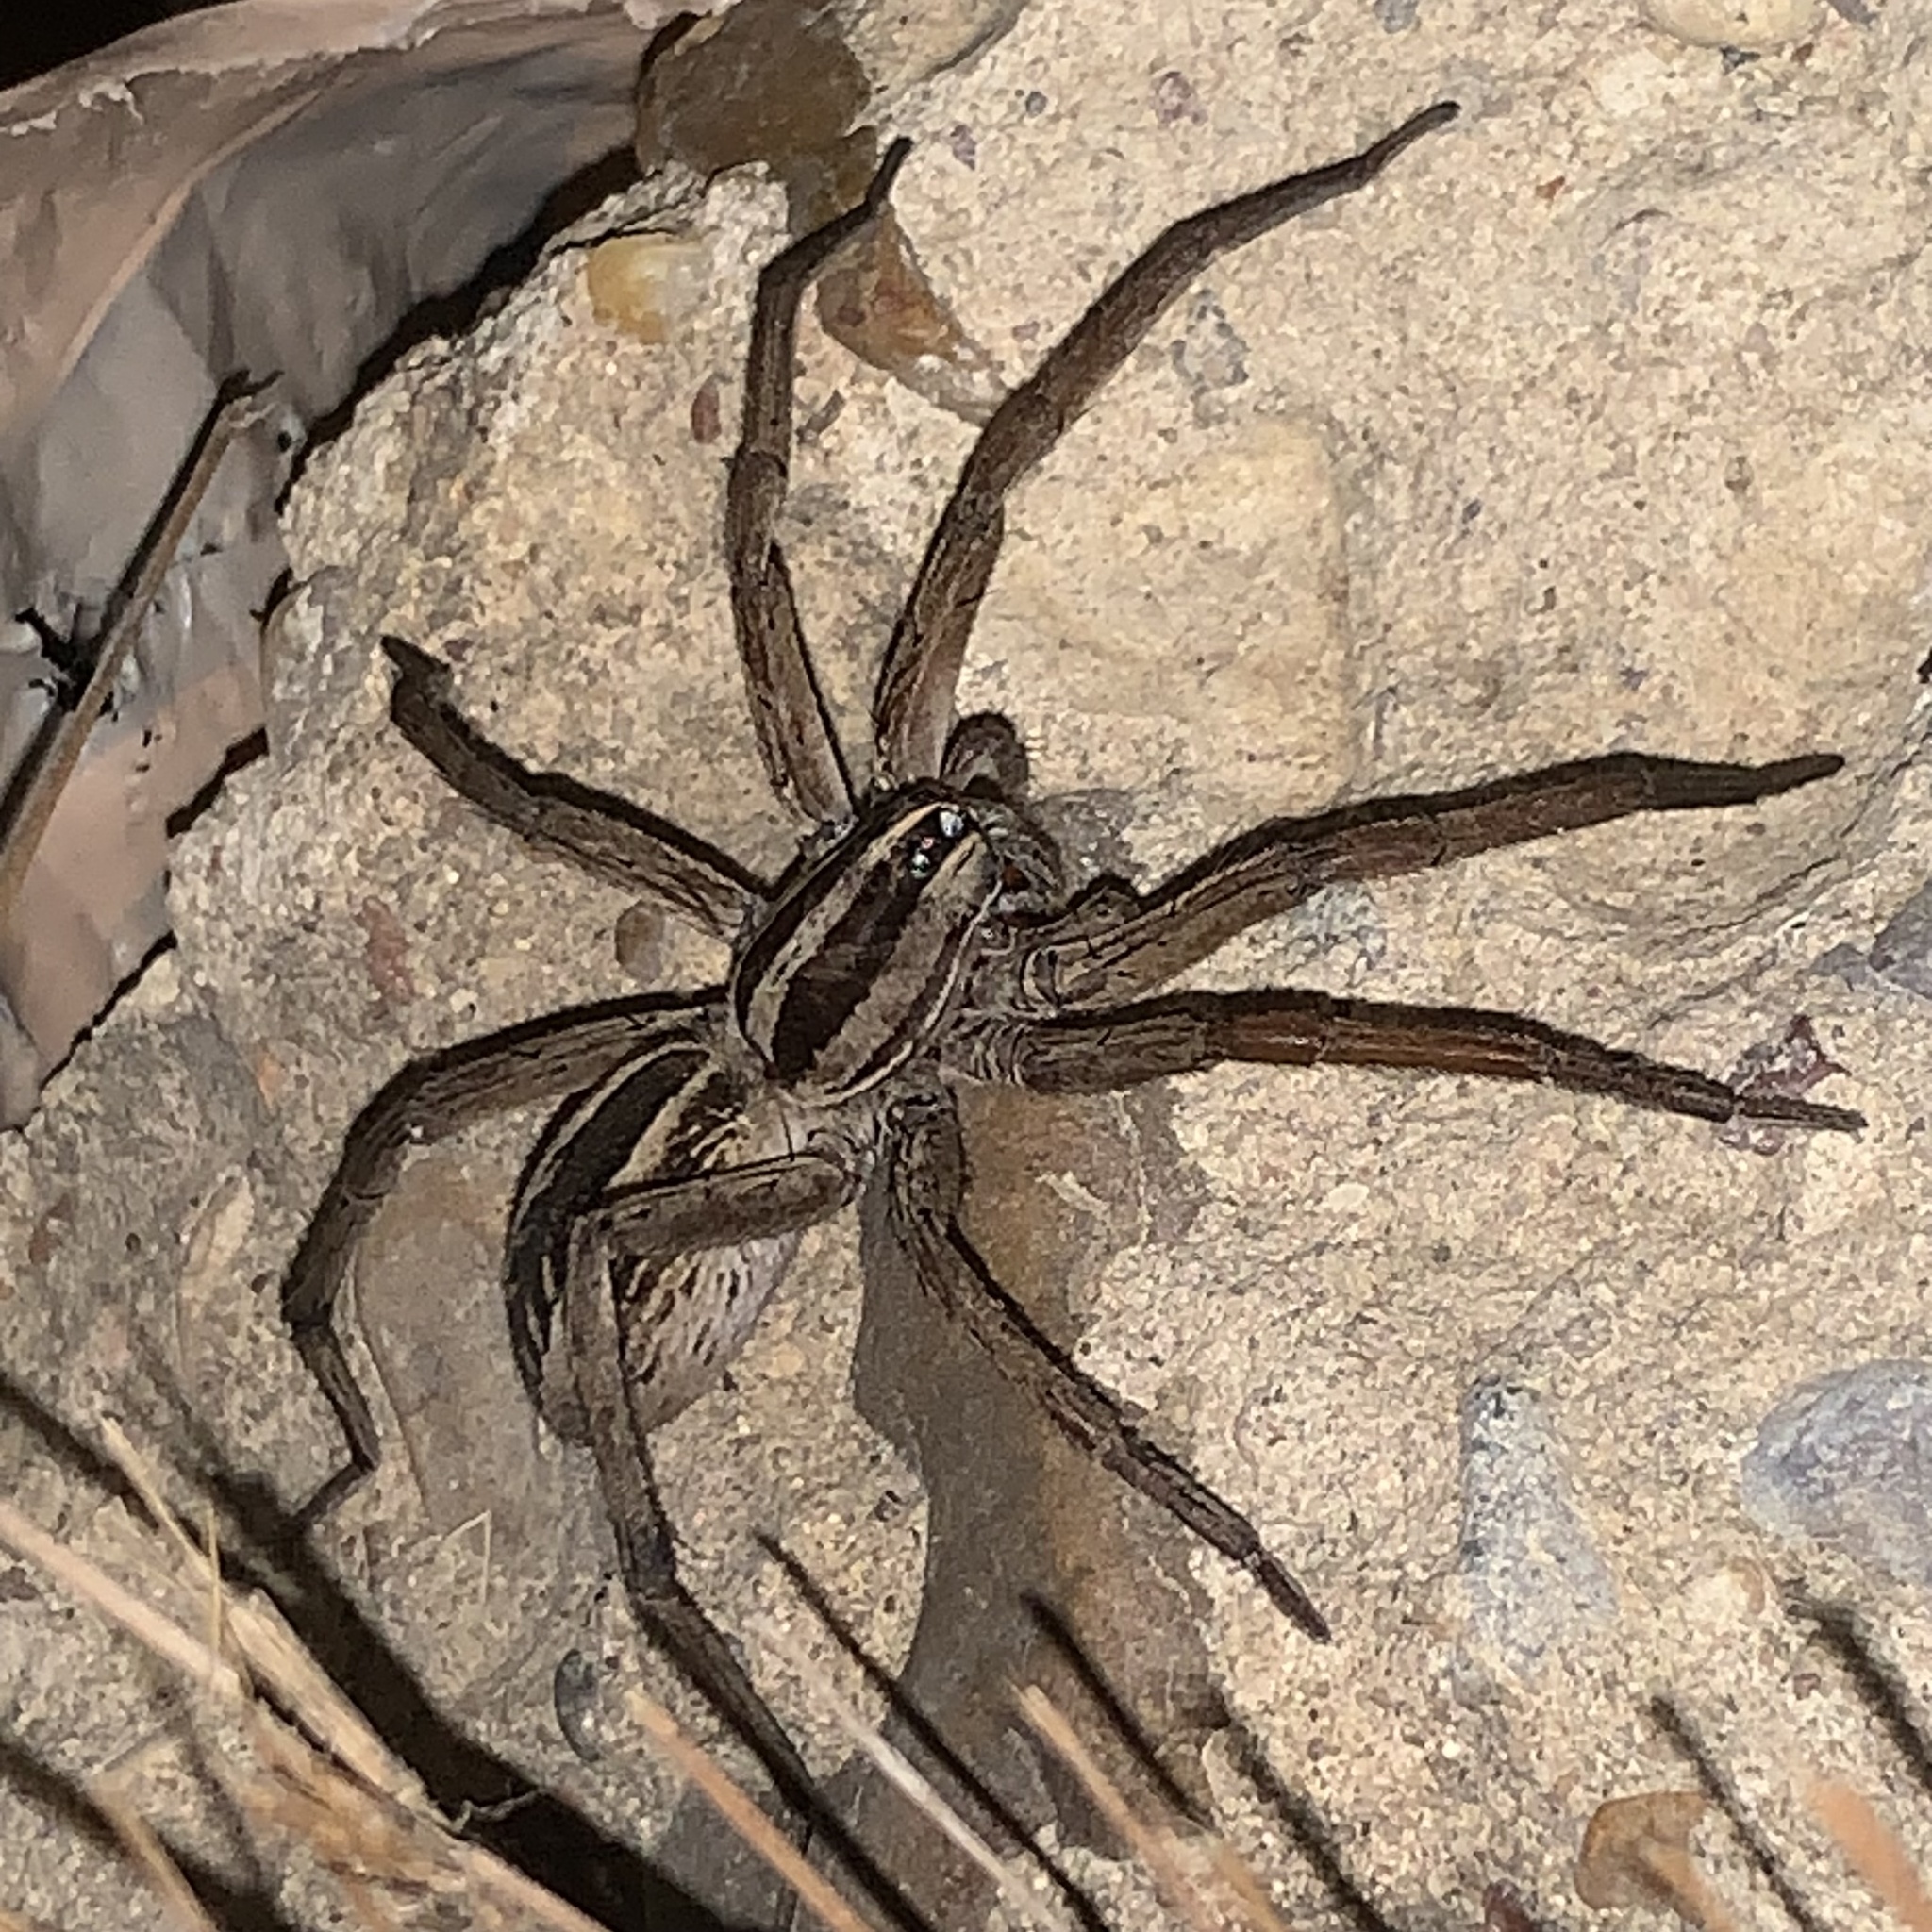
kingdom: Animalia
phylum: Arthropoda
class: Arachnida
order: Araneae
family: Lycosidae
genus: Rabidosa
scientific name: Rabidosa rabida
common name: Rabid wolf spider
